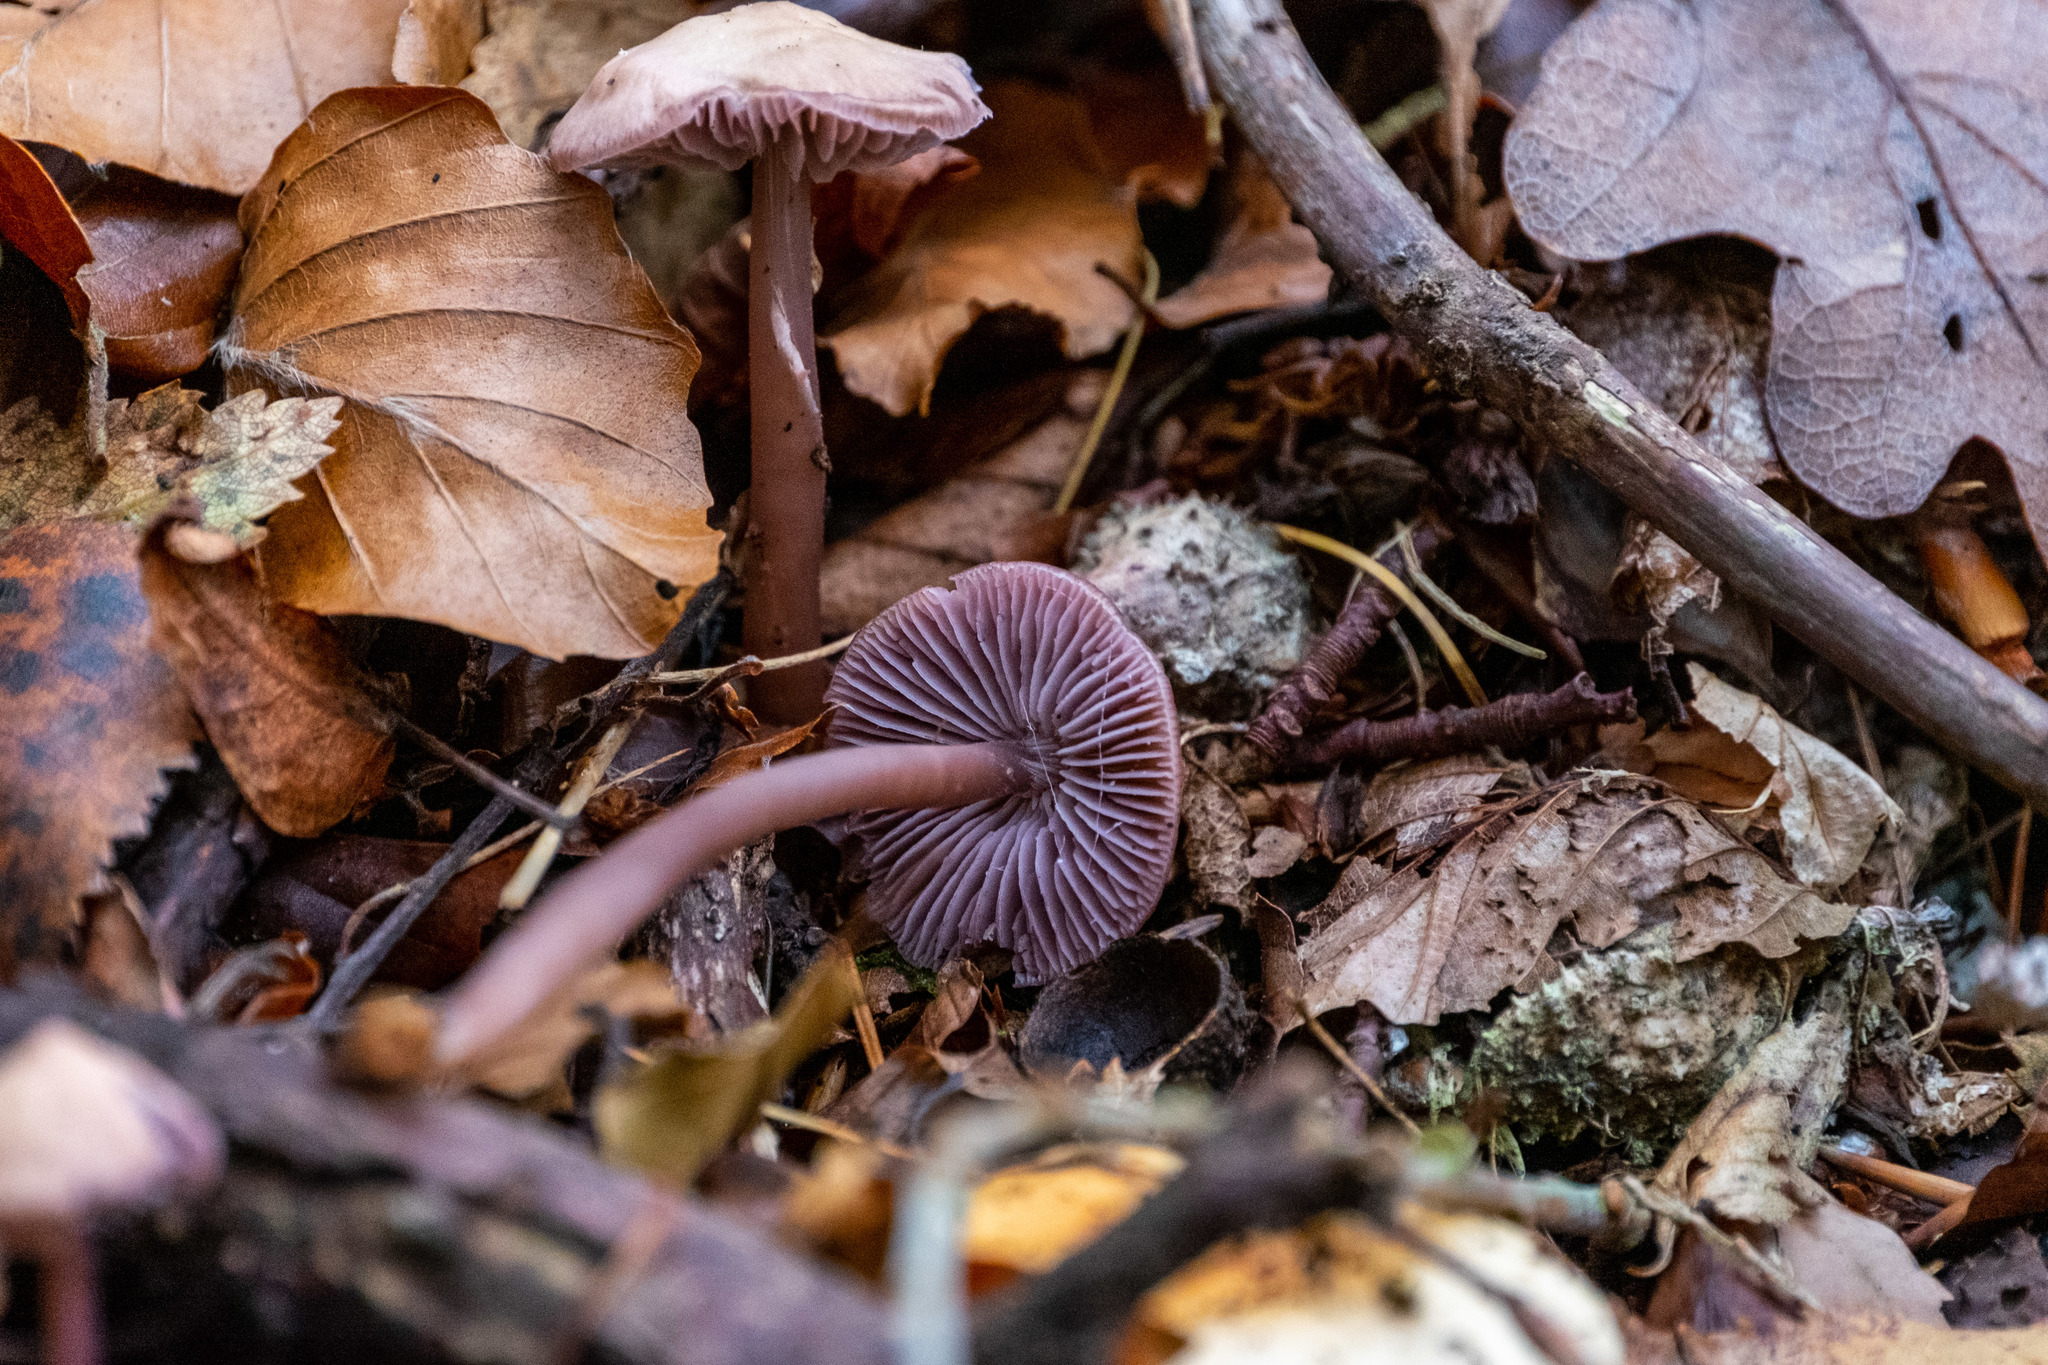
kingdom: Fungi
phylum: Basidiomycota
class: Agaricomycetes
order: Agaricales
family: Mycenaceae
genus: Mycena
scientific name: Mycena pura
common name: Lilac bonnet
